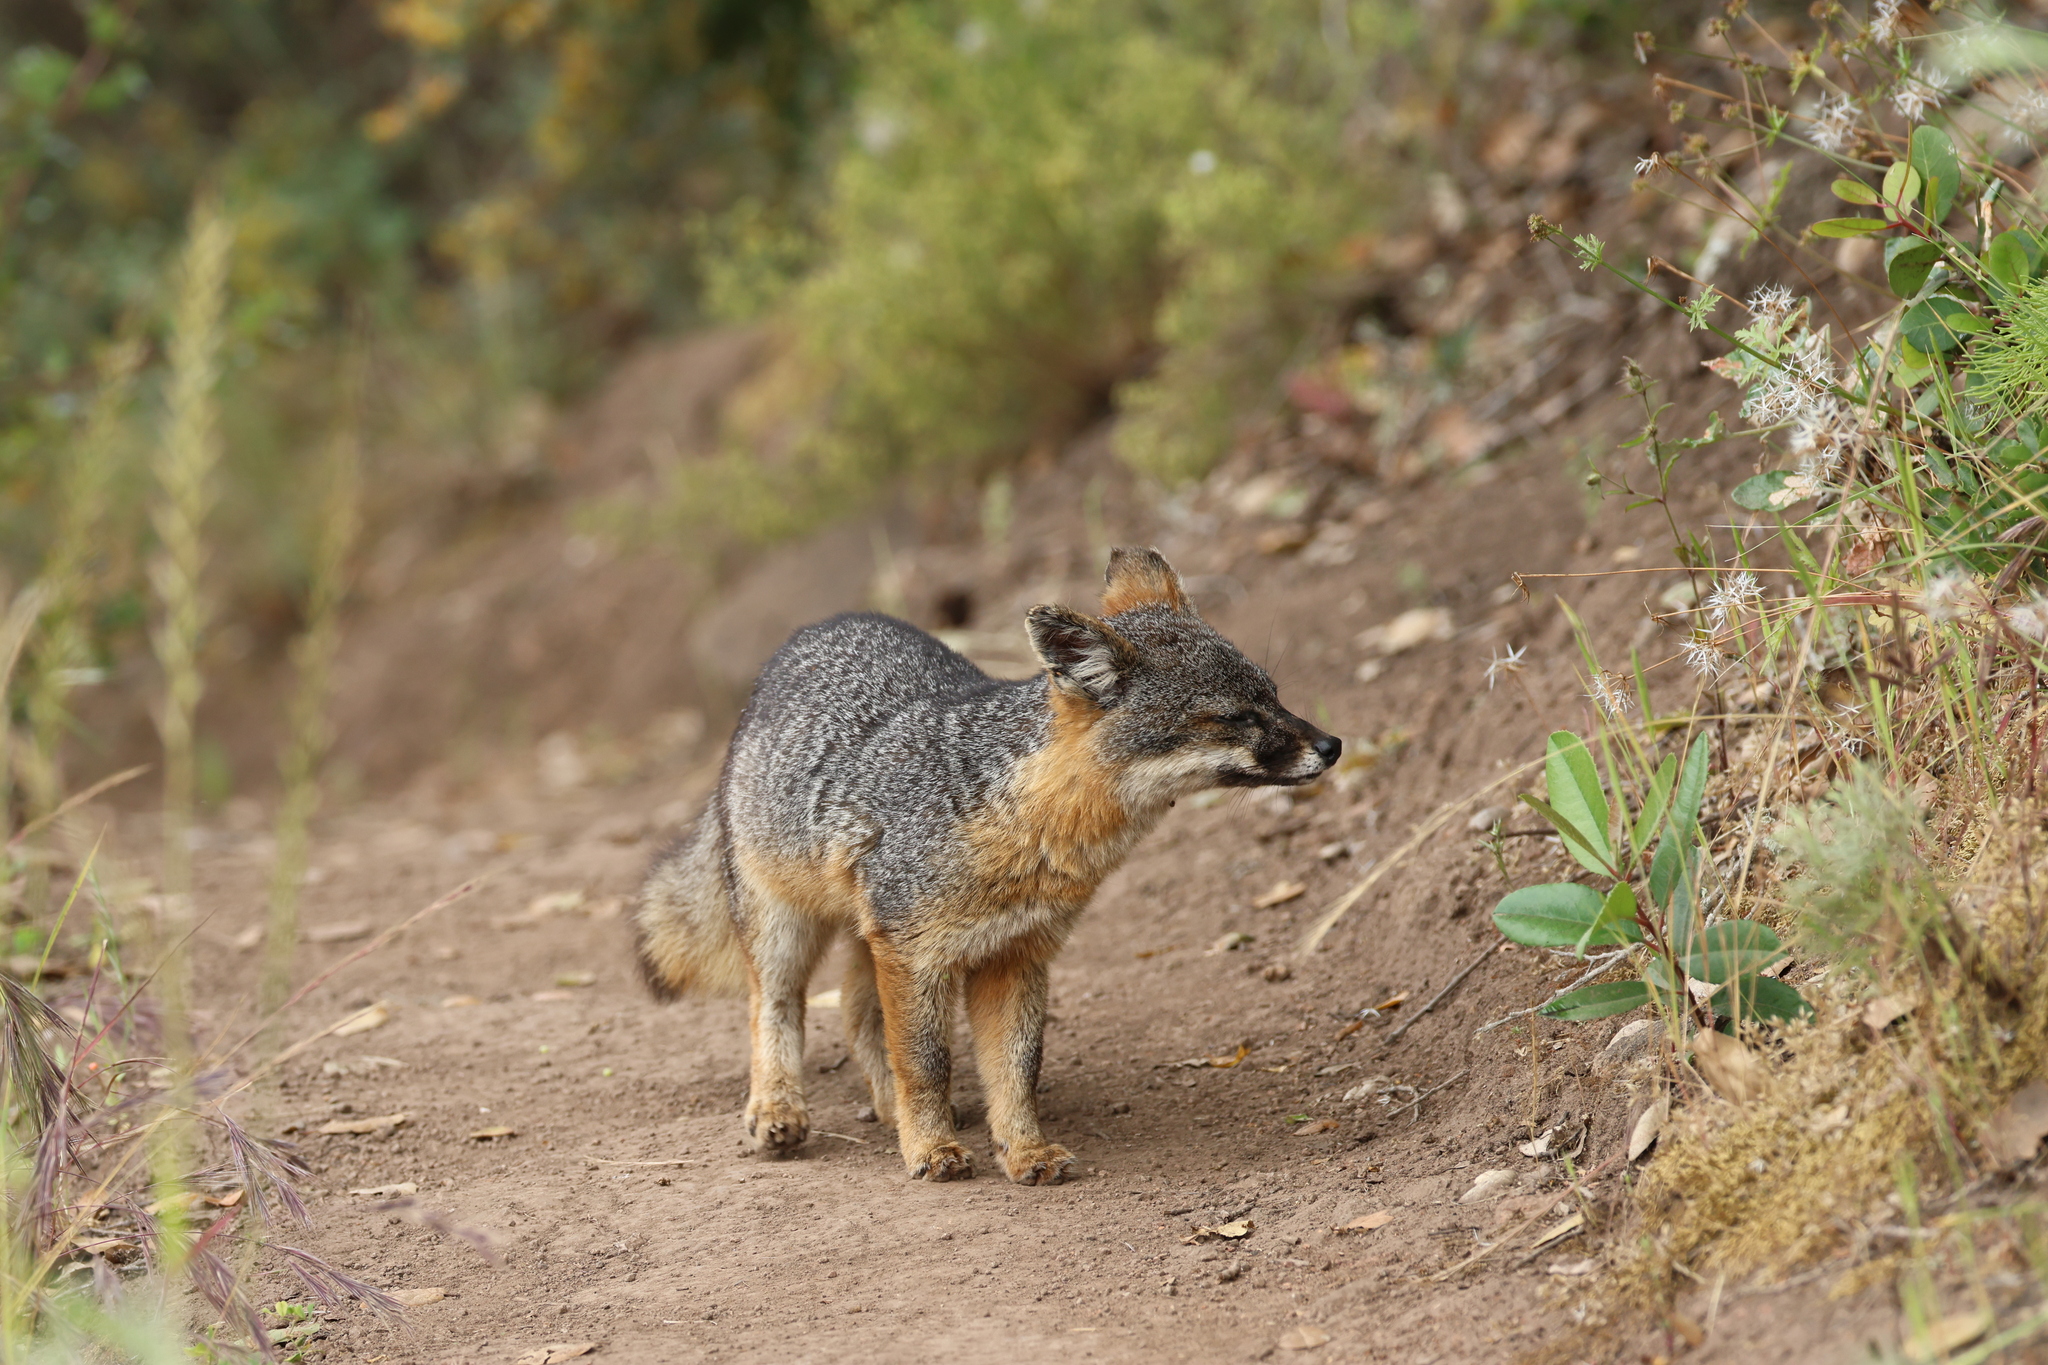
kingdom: Animalia
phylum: Chordata
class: Mammalia
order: Carnivora
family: Canidae
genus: Urocyon
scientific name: Urocyon littoralis
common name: Island gray fox
